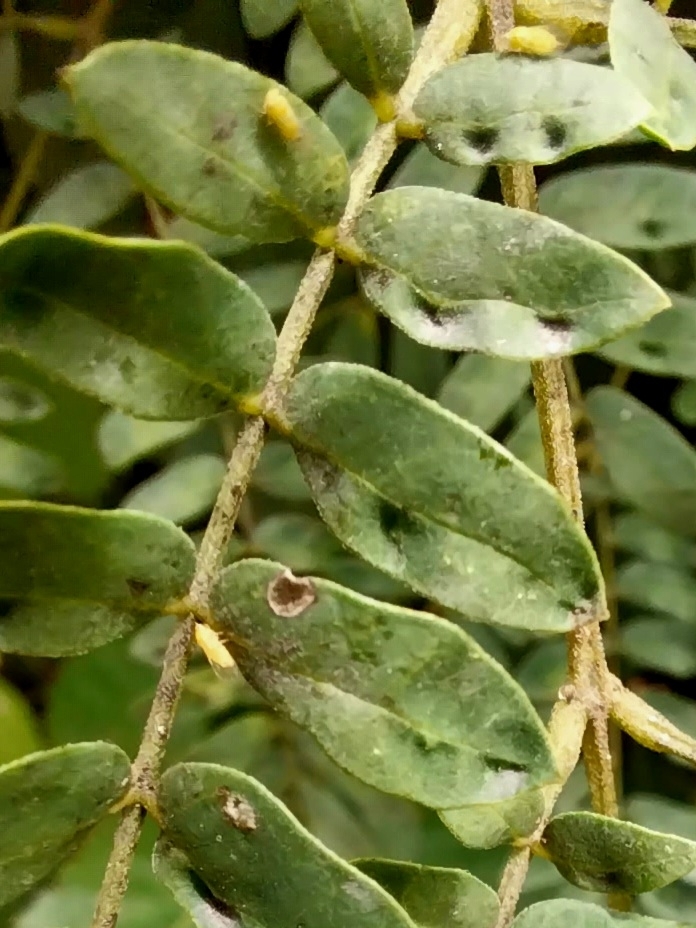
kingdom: Animalia
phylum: Arthropoda
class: Insecta
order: Hemiptera
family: Psyllidae
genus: Heteropsylla
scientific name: Heteropsylla cubana
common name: Jumping plant louse
